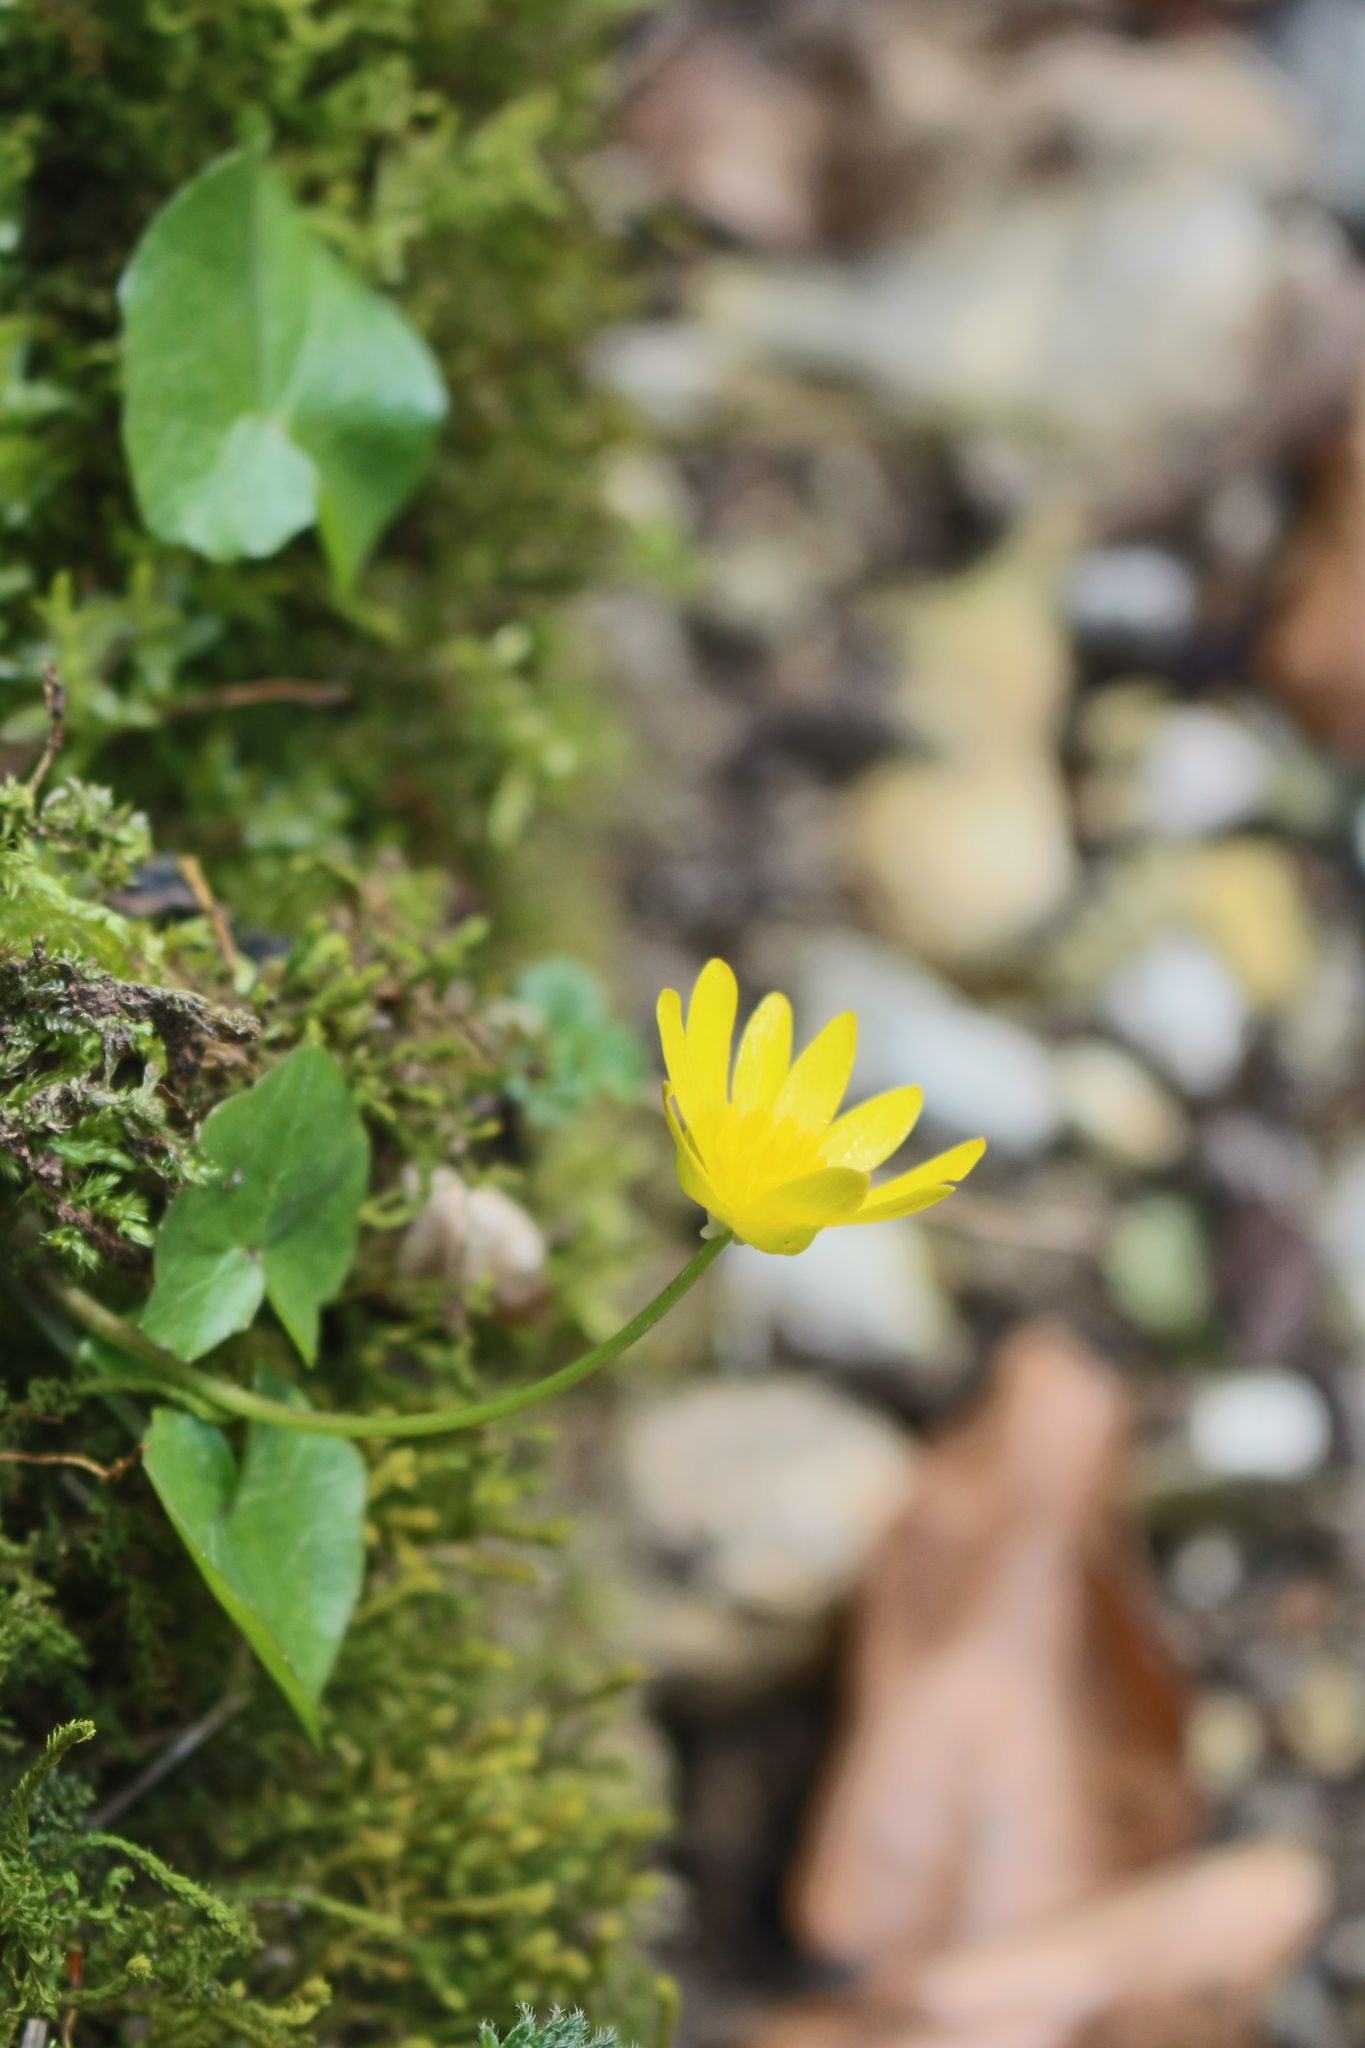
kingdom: Plantae
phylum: Tracheophyta
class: Magnoliopsida
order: Ranunculales
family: Ranunculaceae
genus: Ficaria
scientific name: Ficaria verna
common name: Lesser celandine
